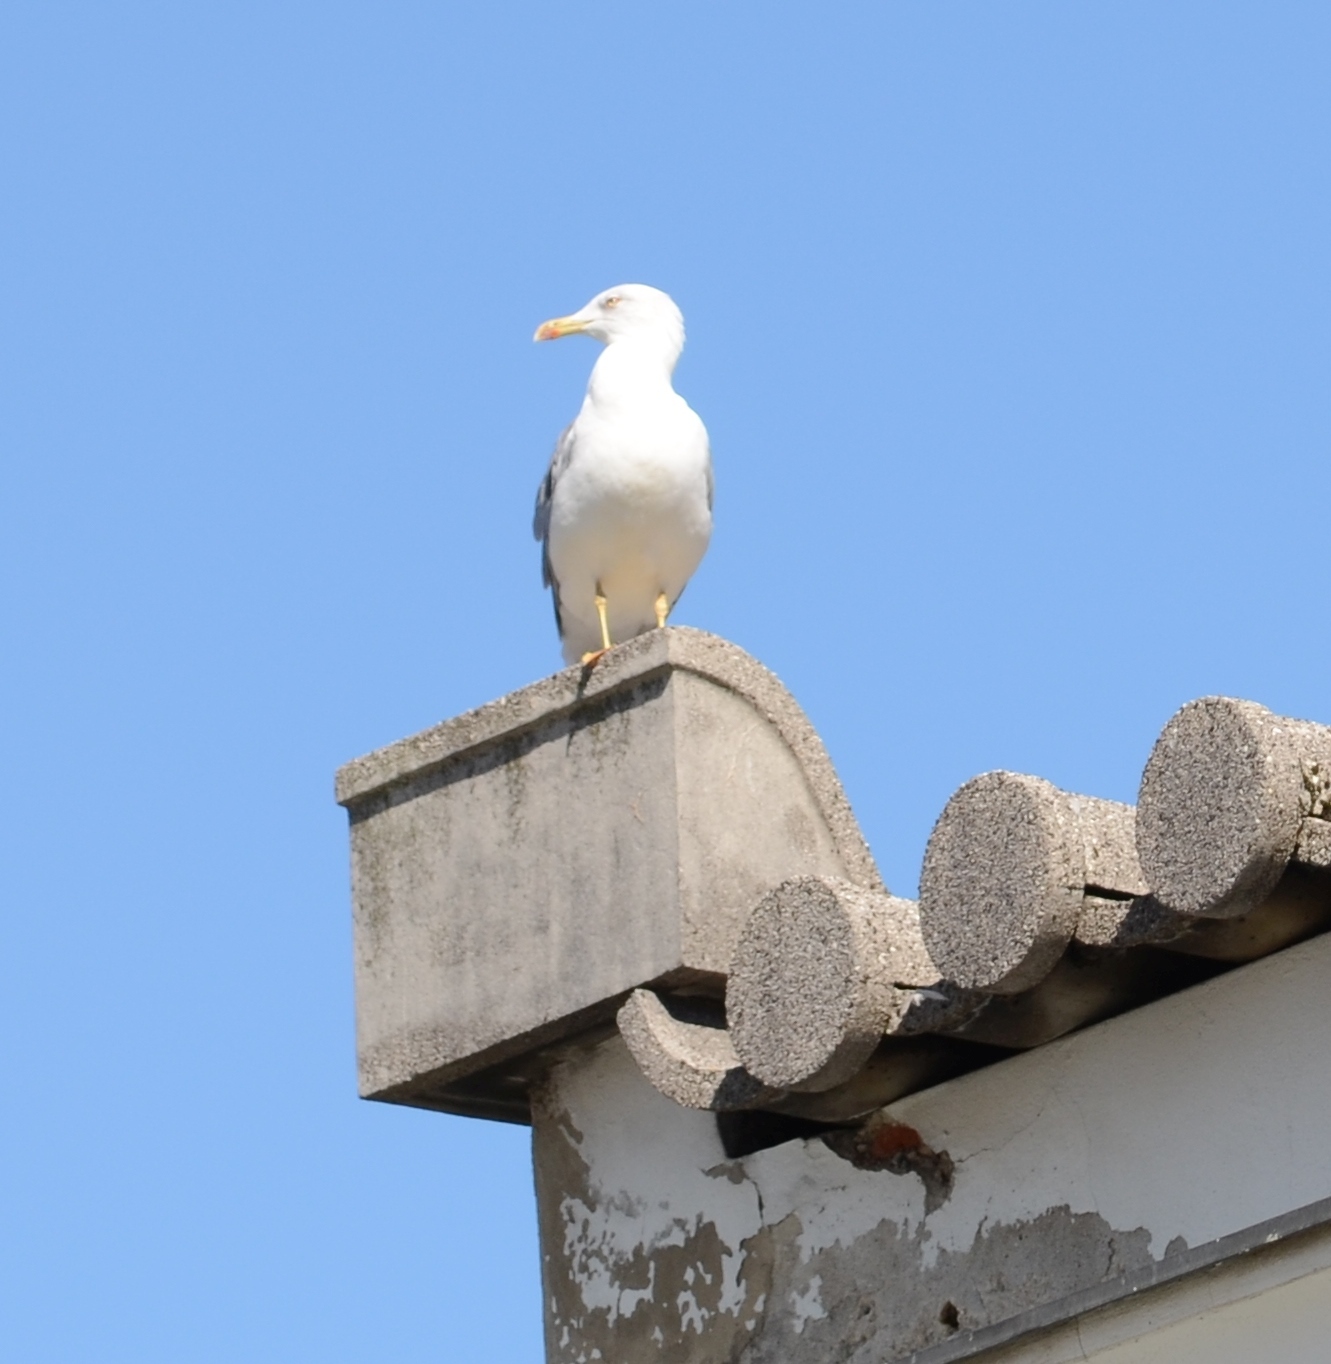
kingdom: Animalia
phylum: Chordata
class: Aves
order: Charadriiformes
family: Laridae
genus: Larus
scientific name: Larus michahellis
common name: Yellow-legged gull
